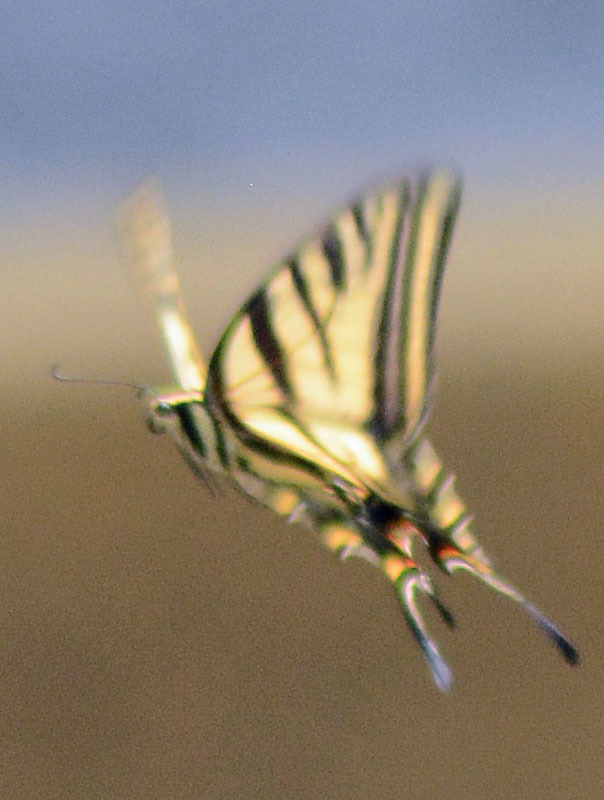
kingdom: Animalia
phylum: Arthropoda
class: Insecta
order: Lepidoptera
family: Papilionidae
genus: Papilio
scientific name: Papilio multicaudata
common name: Two-tailed tiger swallowtail
